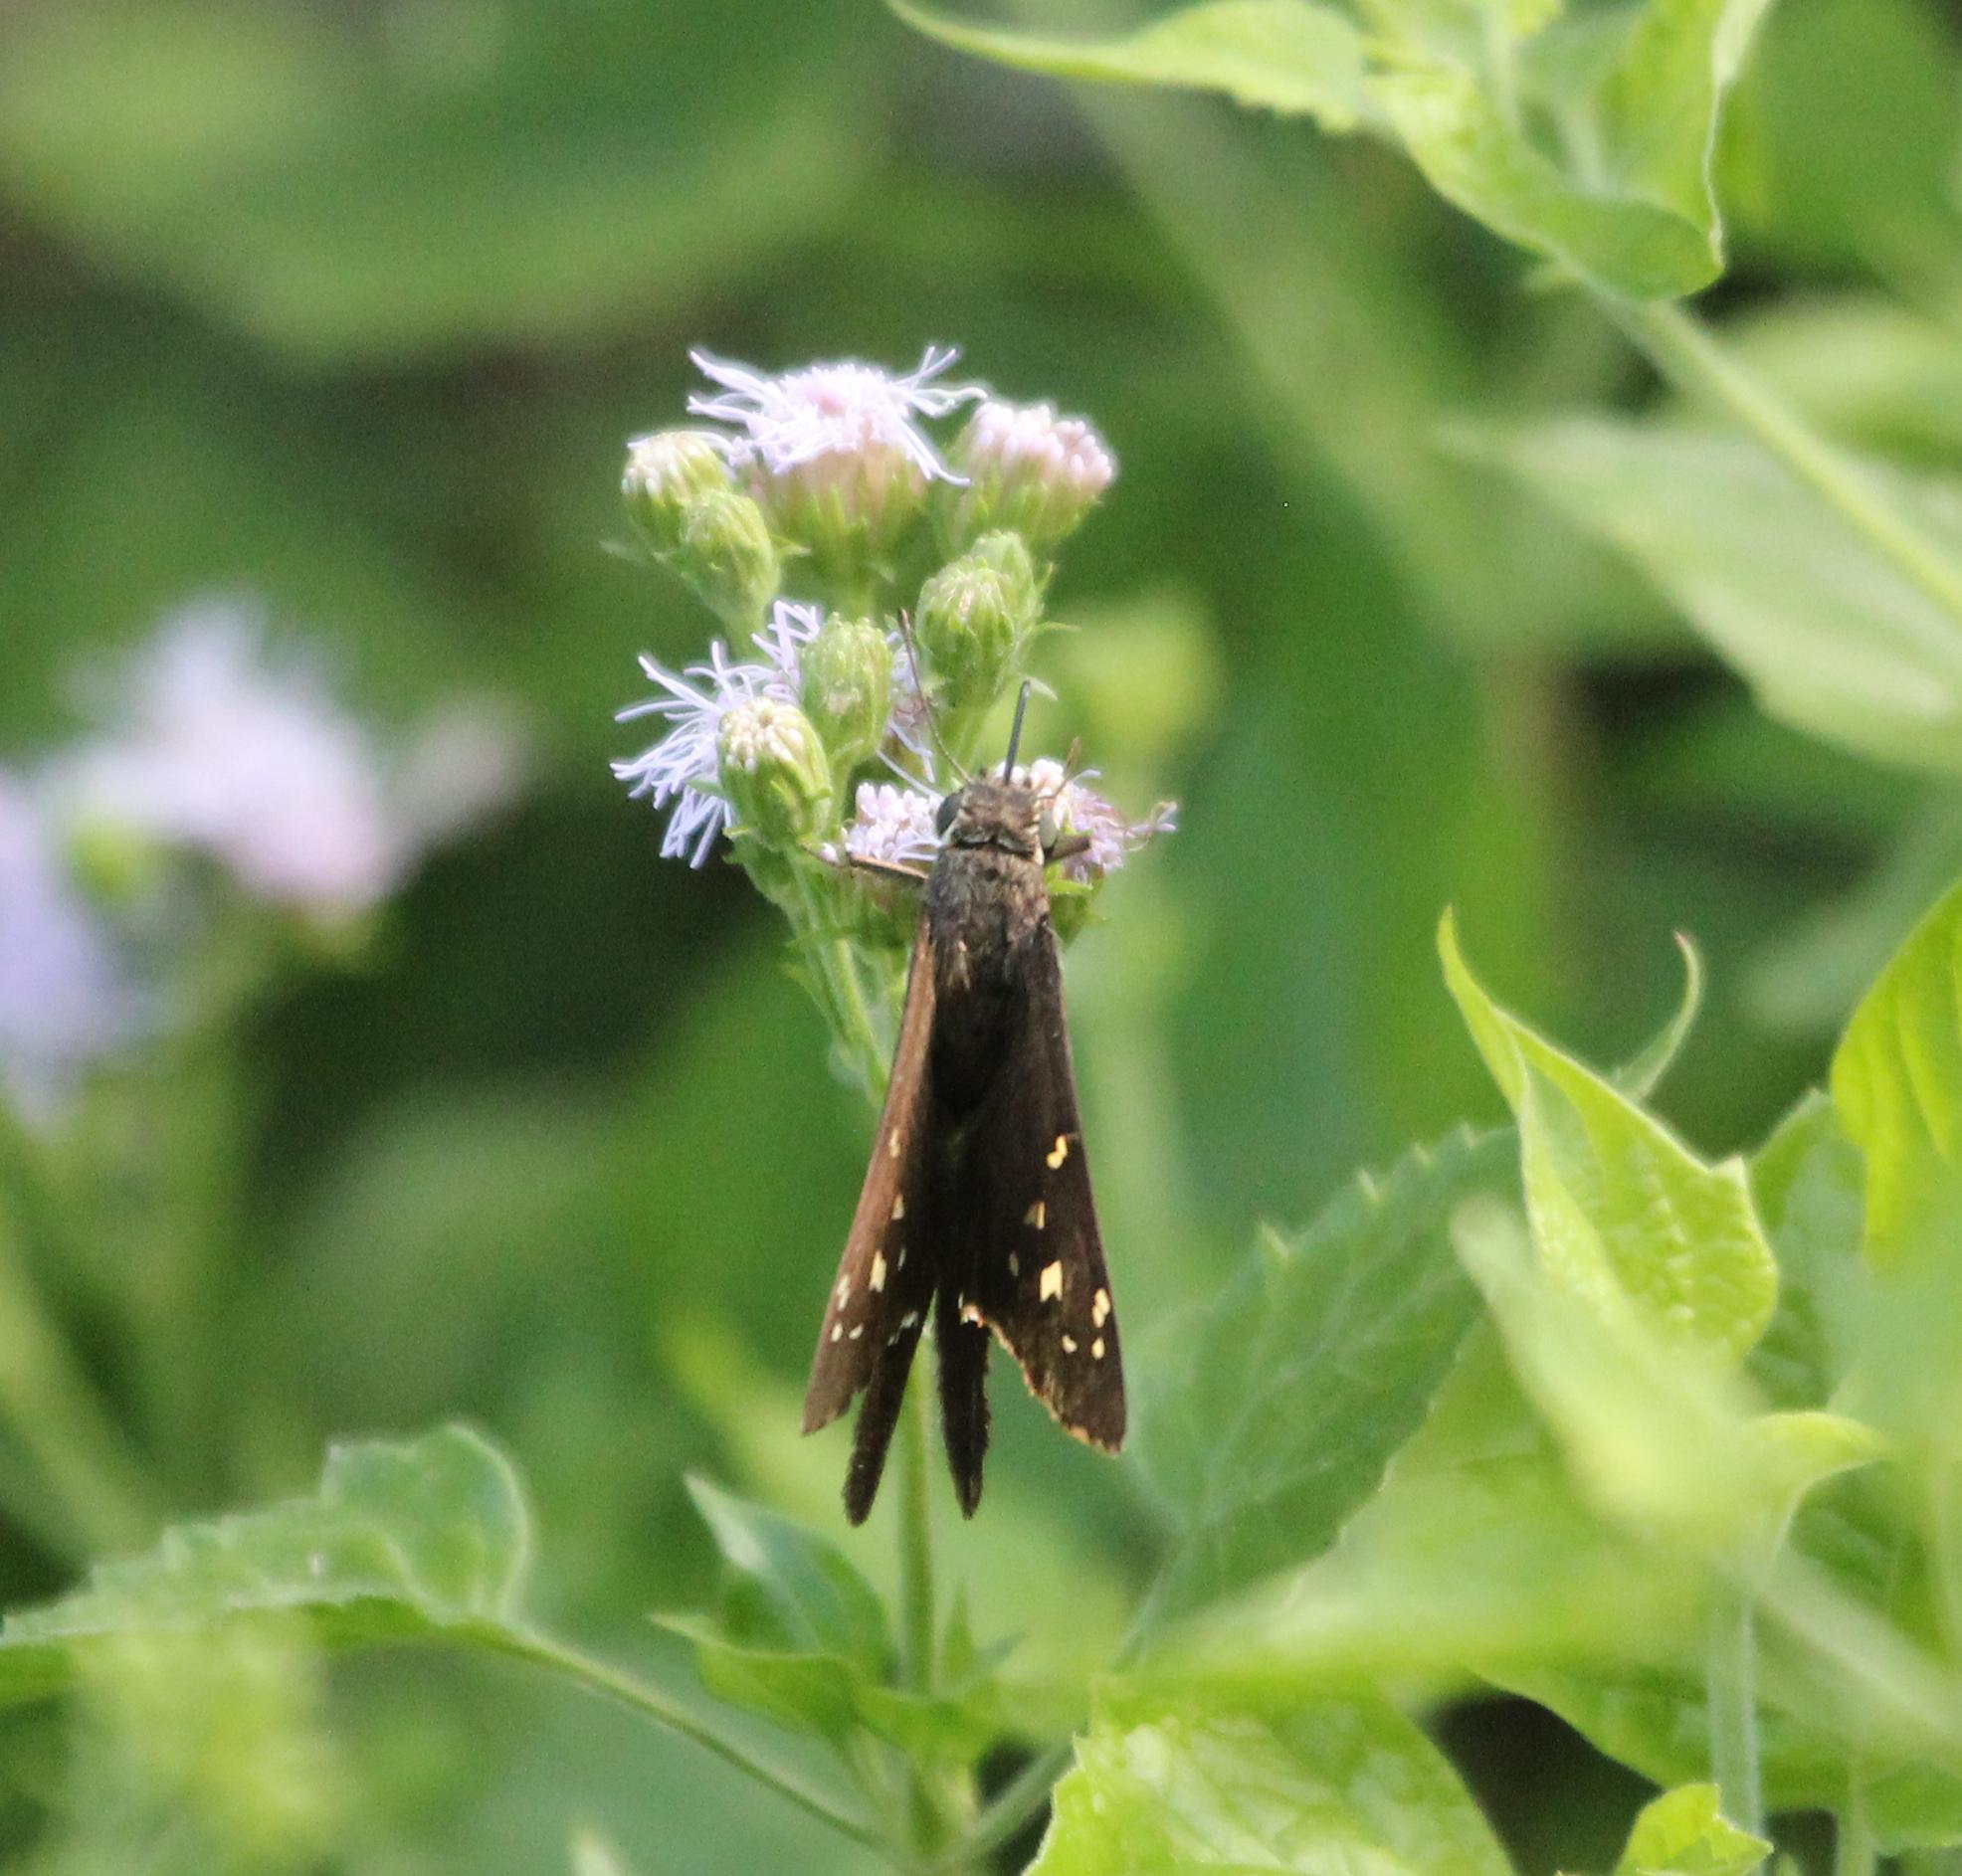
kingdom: Animalia
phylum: Arthropoda
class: Insecta
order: Lepidoptera
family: Hesperiidae
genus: Thorybes
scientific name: Thorybes
